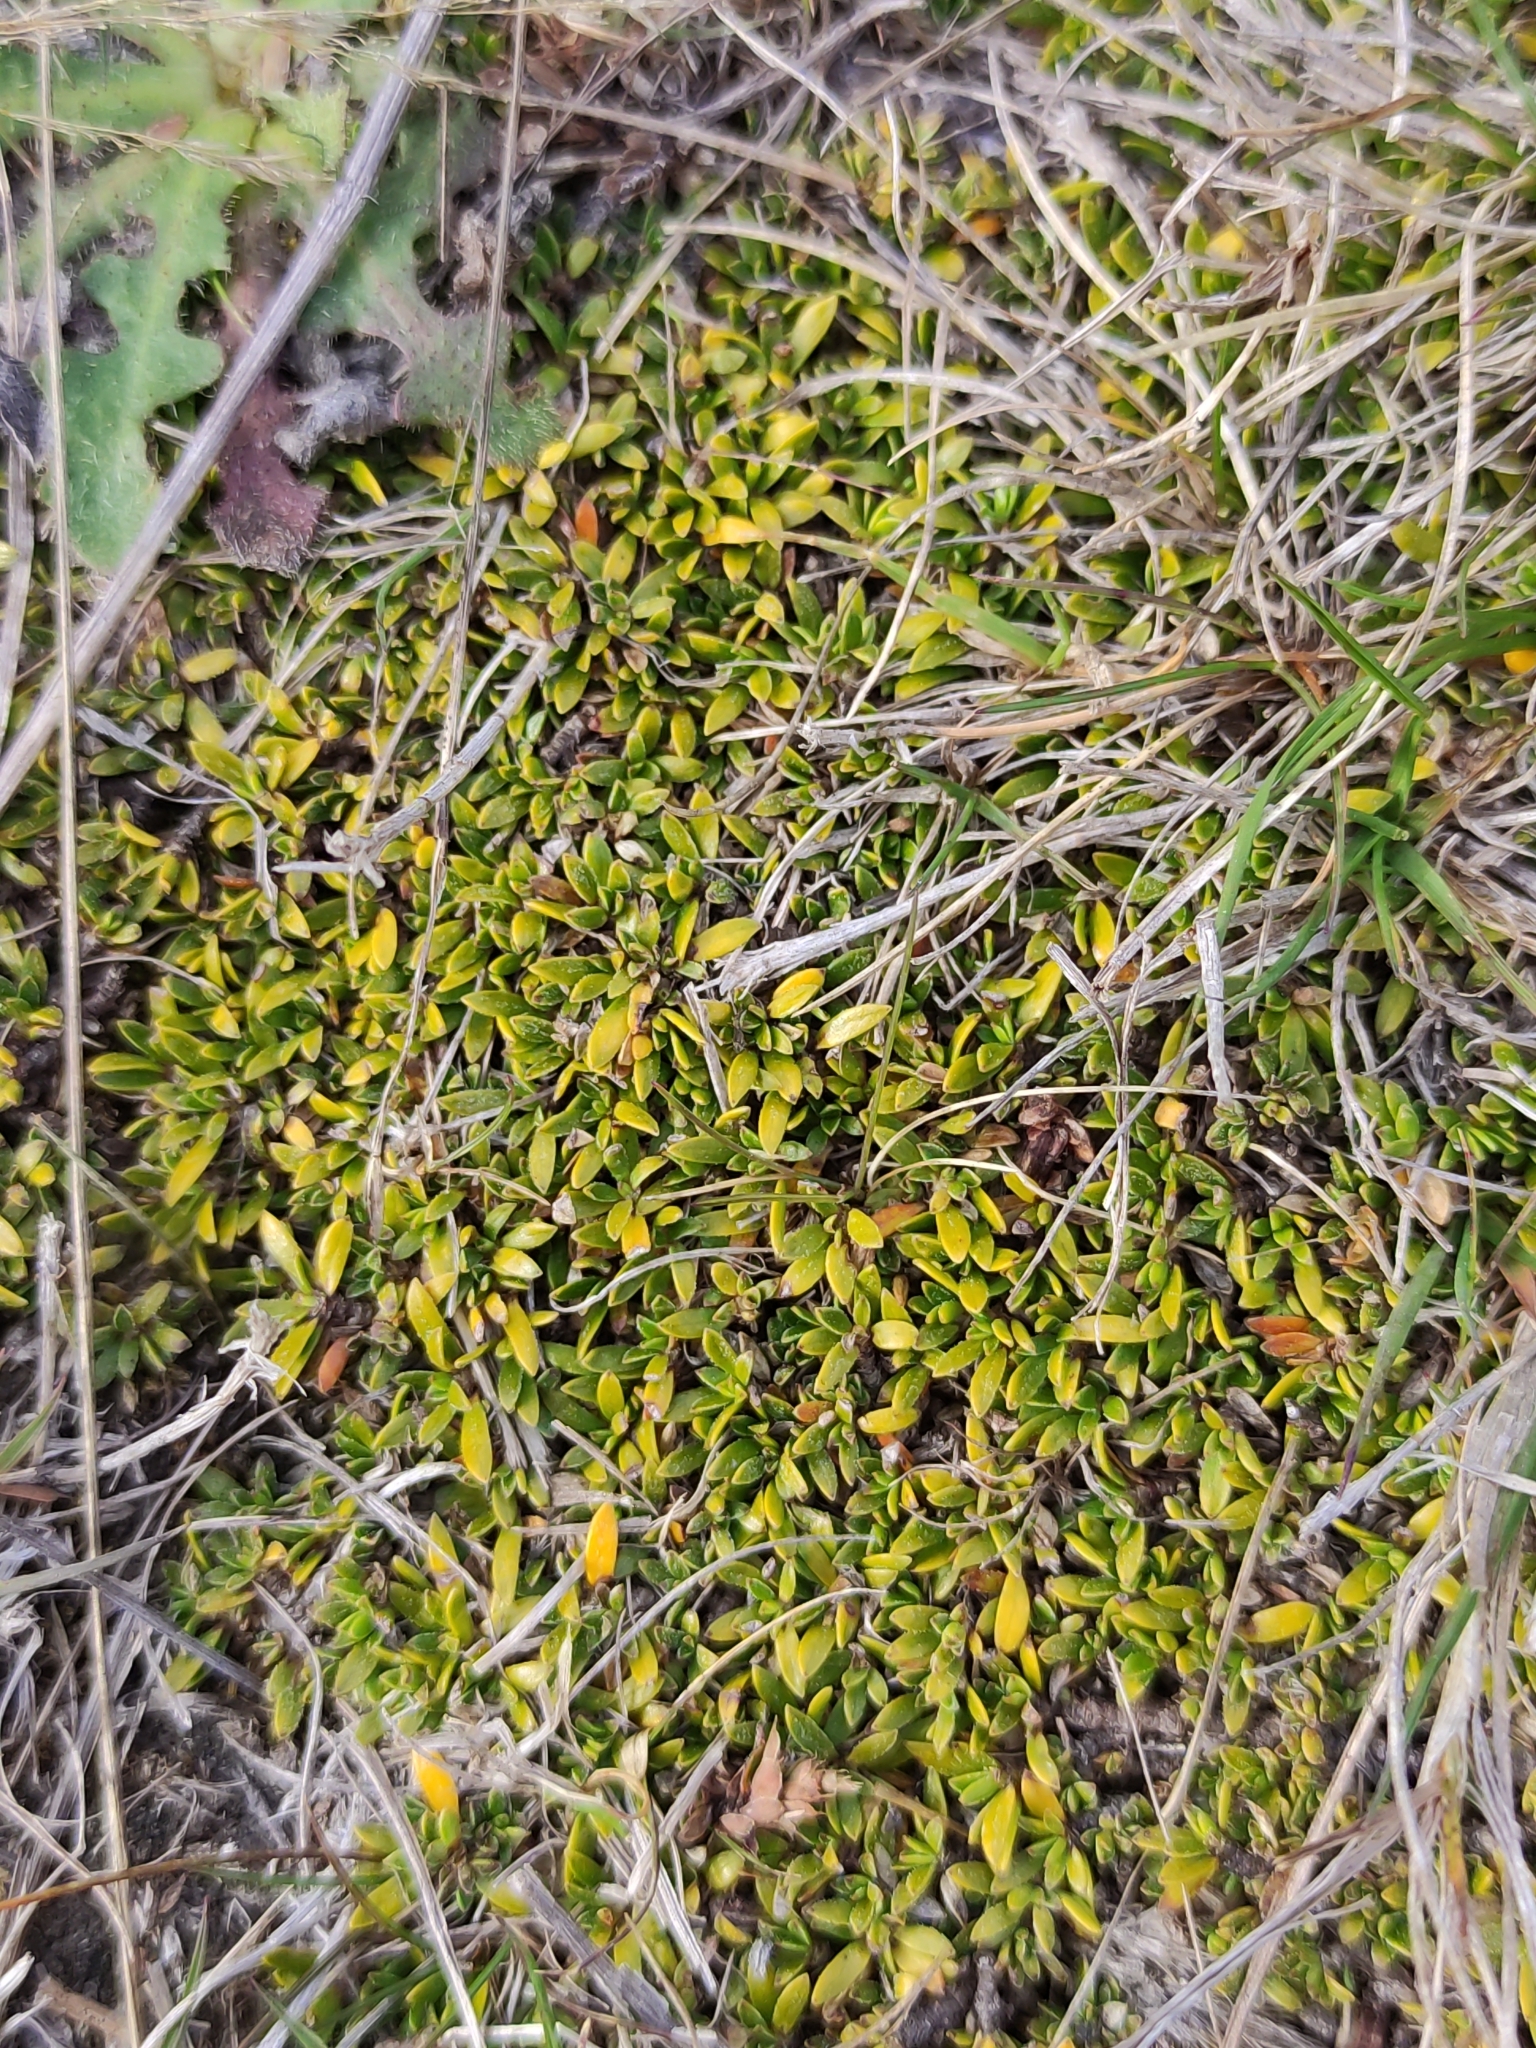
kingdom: Plantae
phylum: Tracheophyta
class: Magnoliopsida
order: Gentianales
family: Rubiaceae
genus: Coprosma
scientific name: Coprosma petriei
